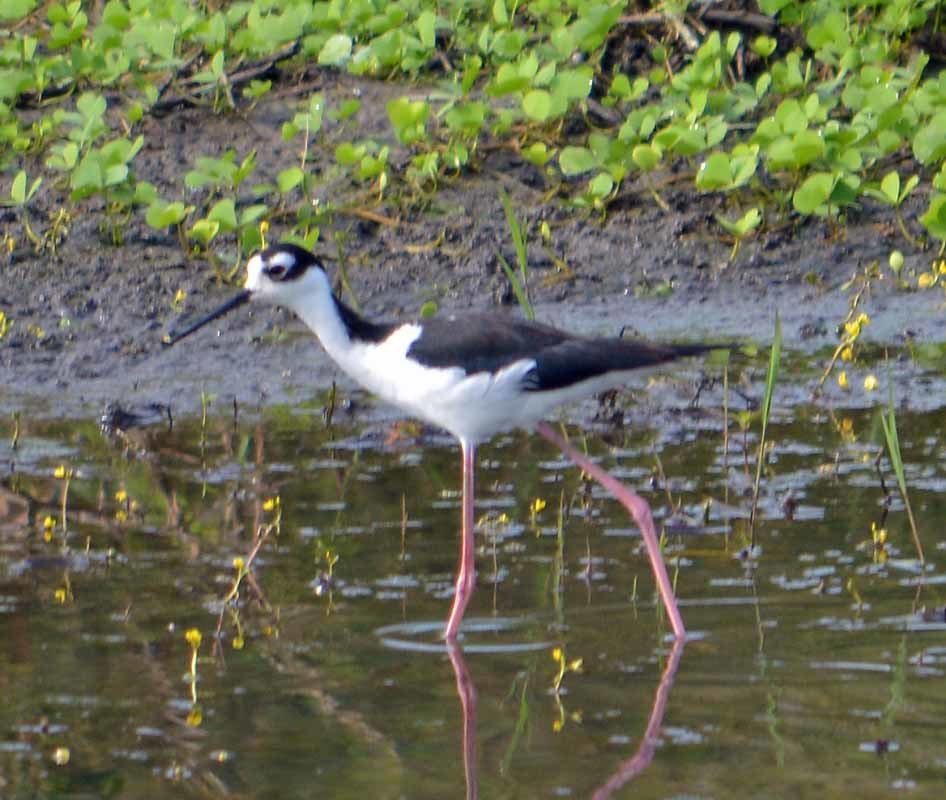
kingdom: Animalia
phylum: Chordata
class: Aves
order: Charadriiformes
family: Recurvirostridae
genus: Himantopus
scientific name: Himantopus mexicanus
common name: Black-necked stilt
